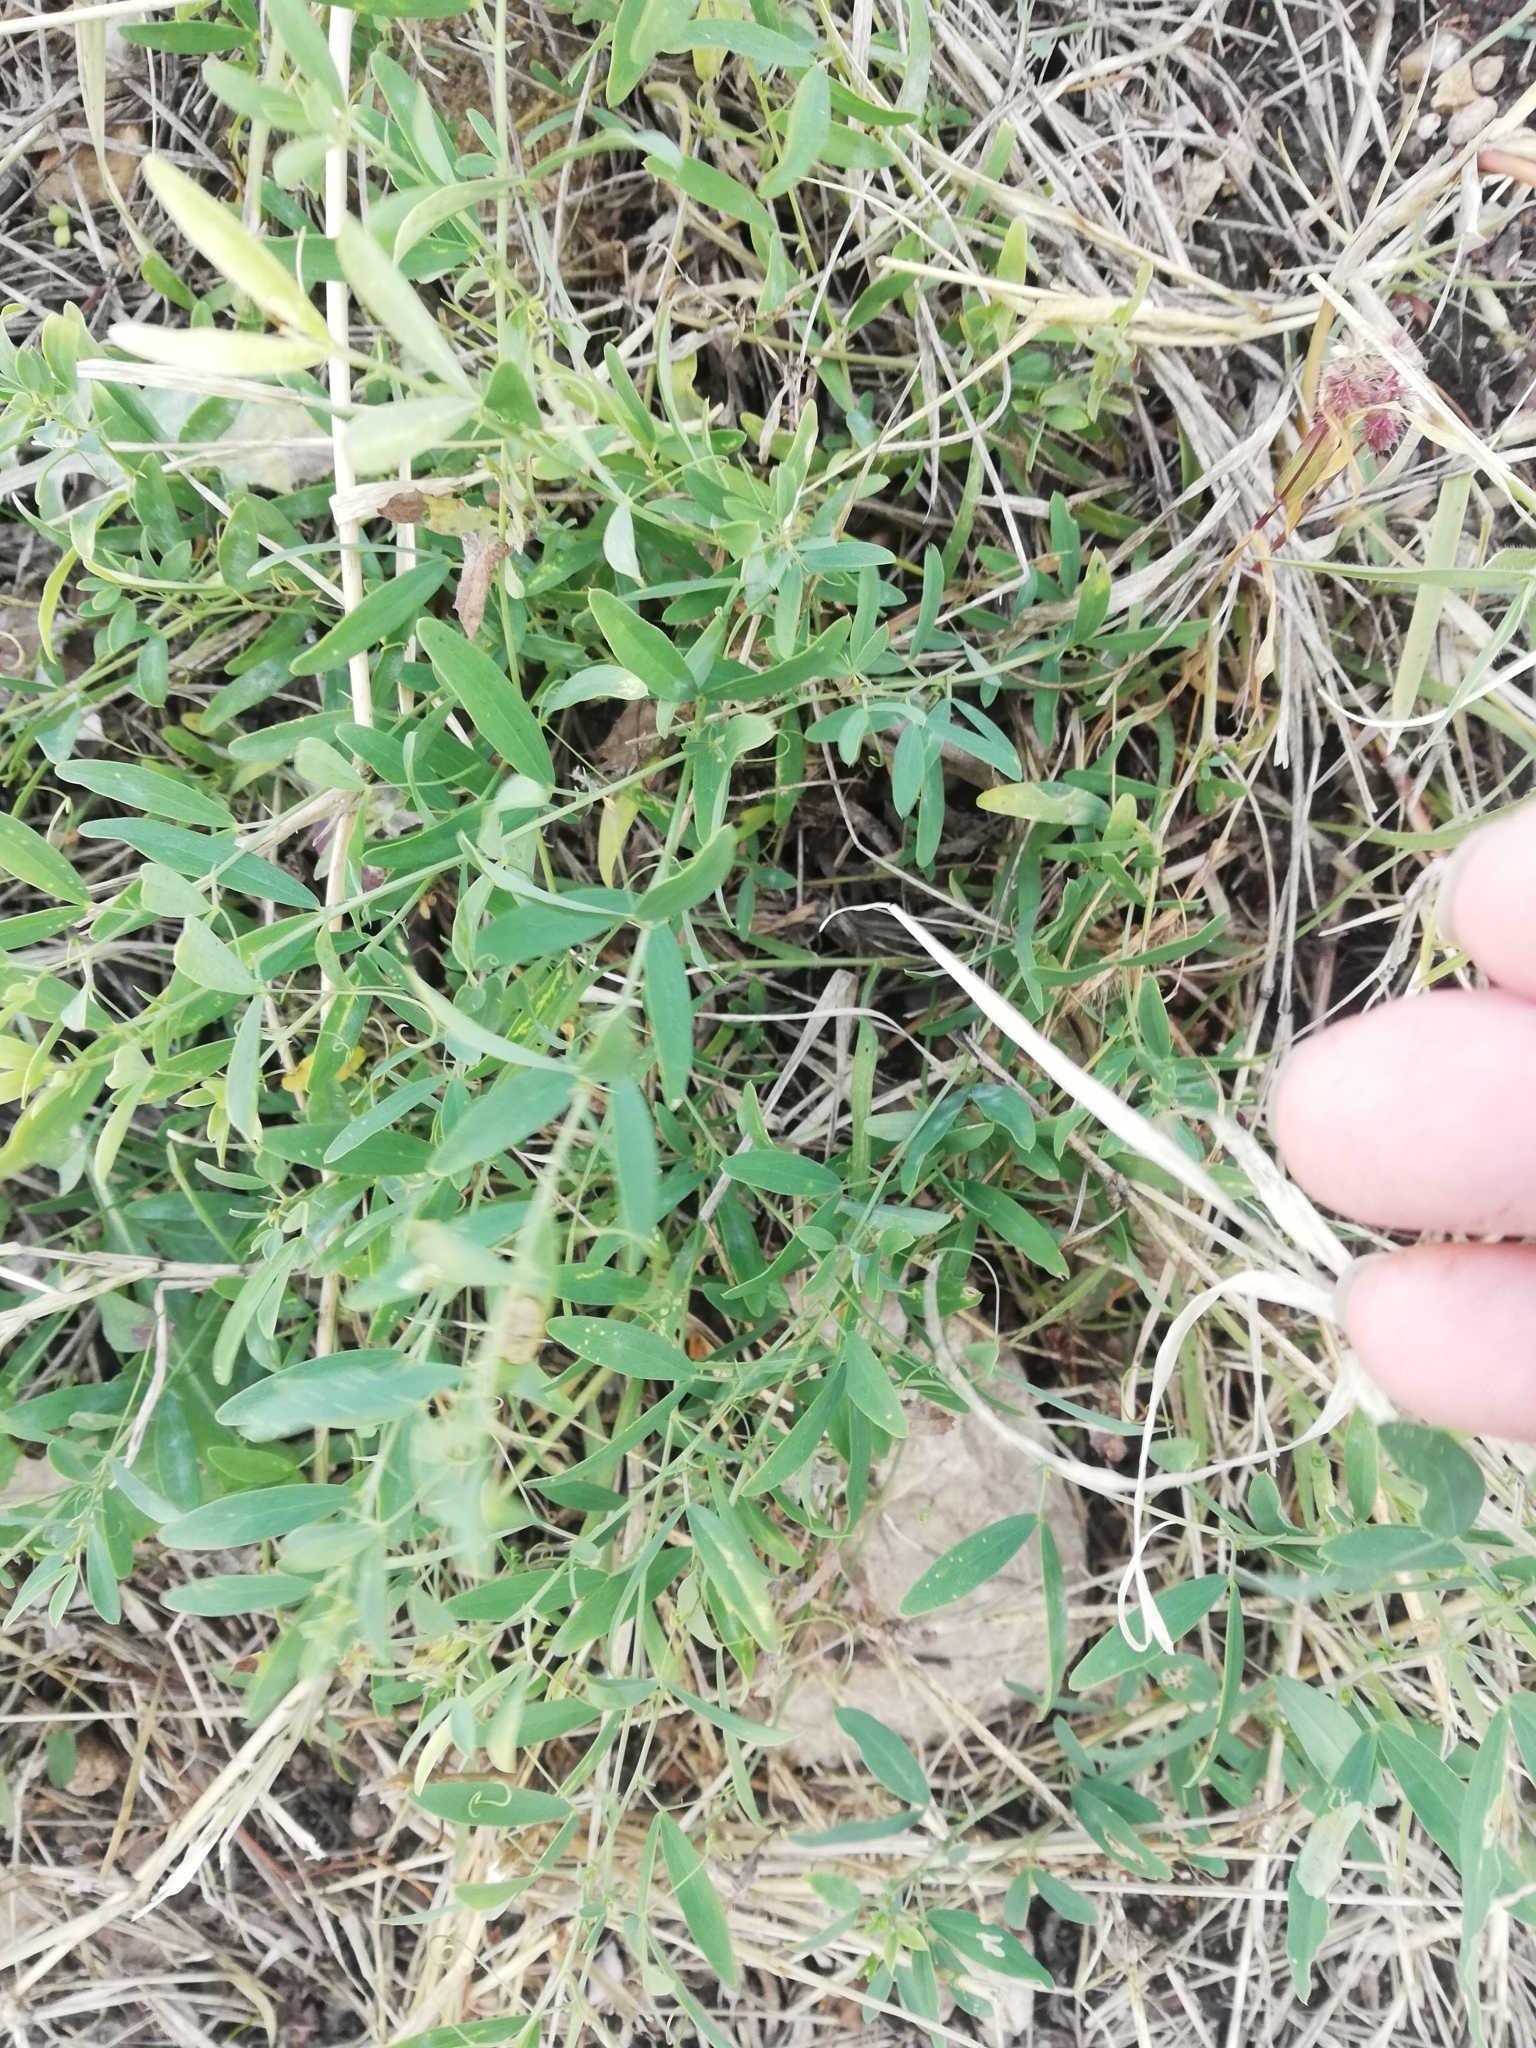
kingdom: Plantae
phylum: Tracheophyta
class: Magnoliopsida
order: Fabales
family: Fabaceae
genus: Lathyrus
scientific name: Lathyrus tuberosus
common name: Tuberous pea
